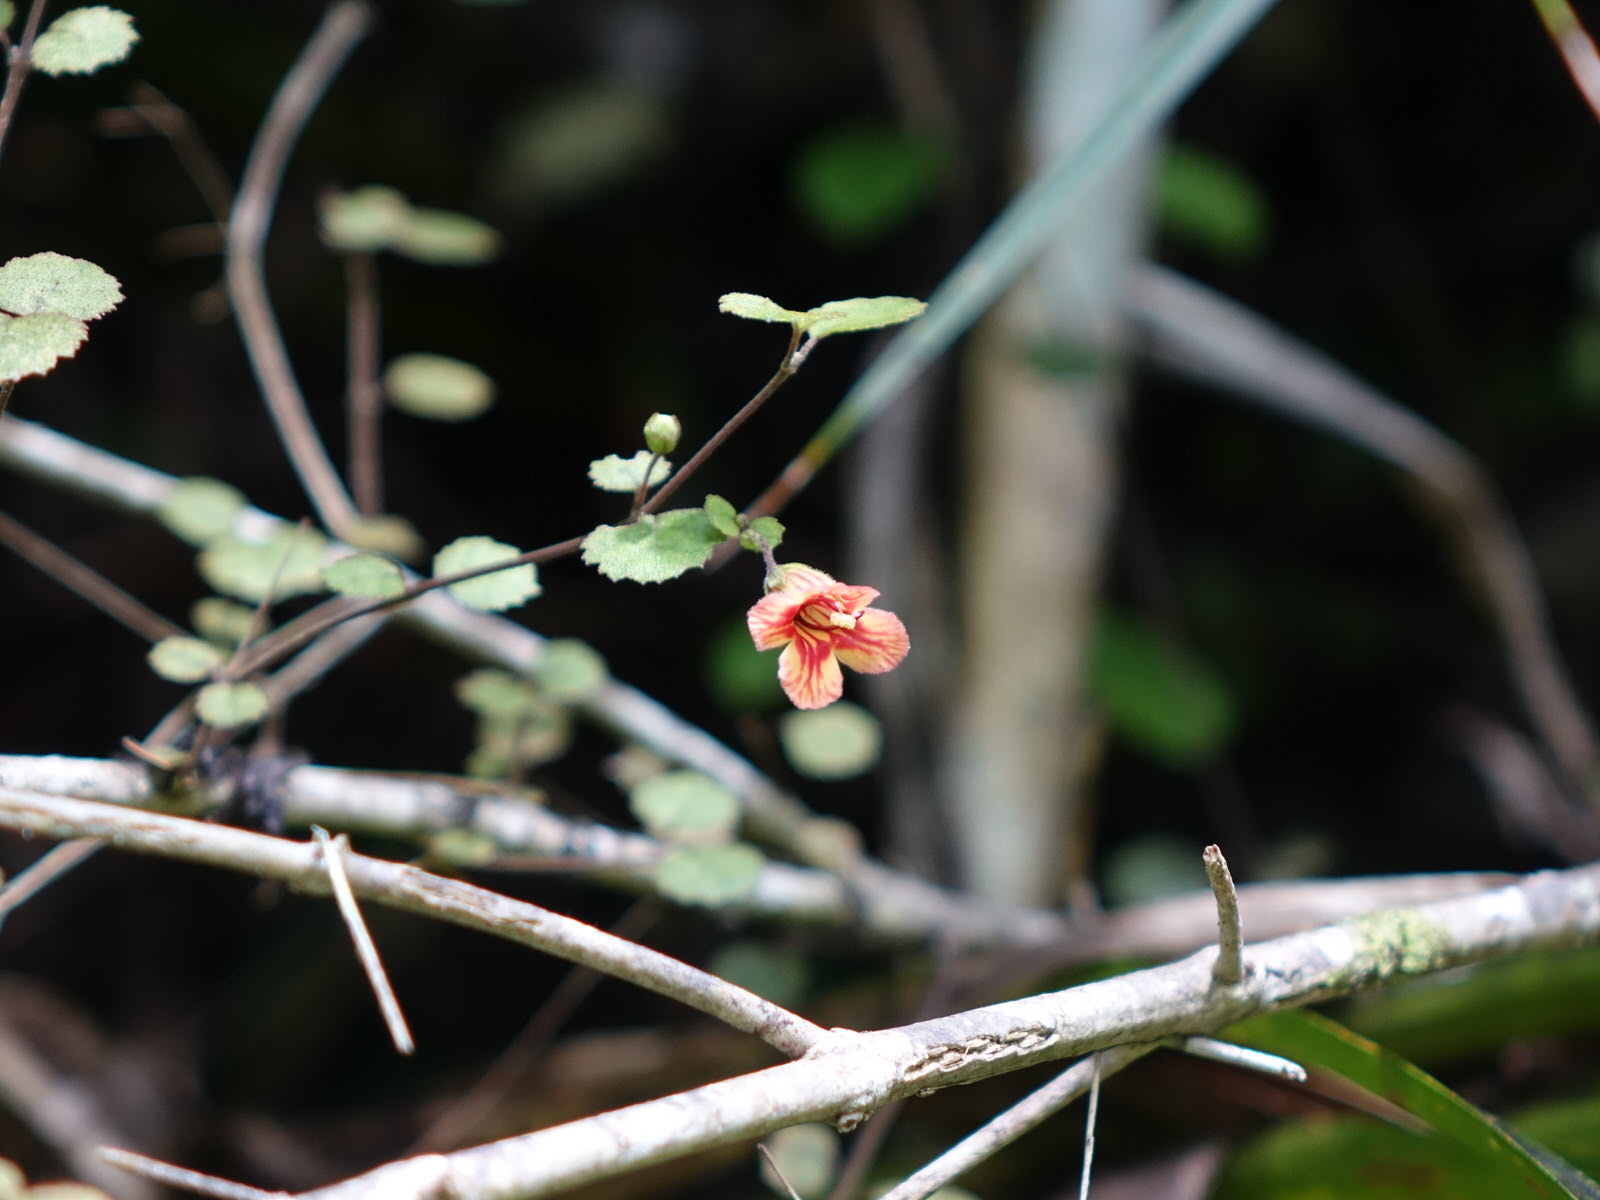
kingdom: Plantae
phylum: Tracheophyta
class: Magnoliopsida
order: Lamiales
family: Gesneriaceae
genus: Rhabdothamnus
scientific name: Rhabdothamnus solandri
